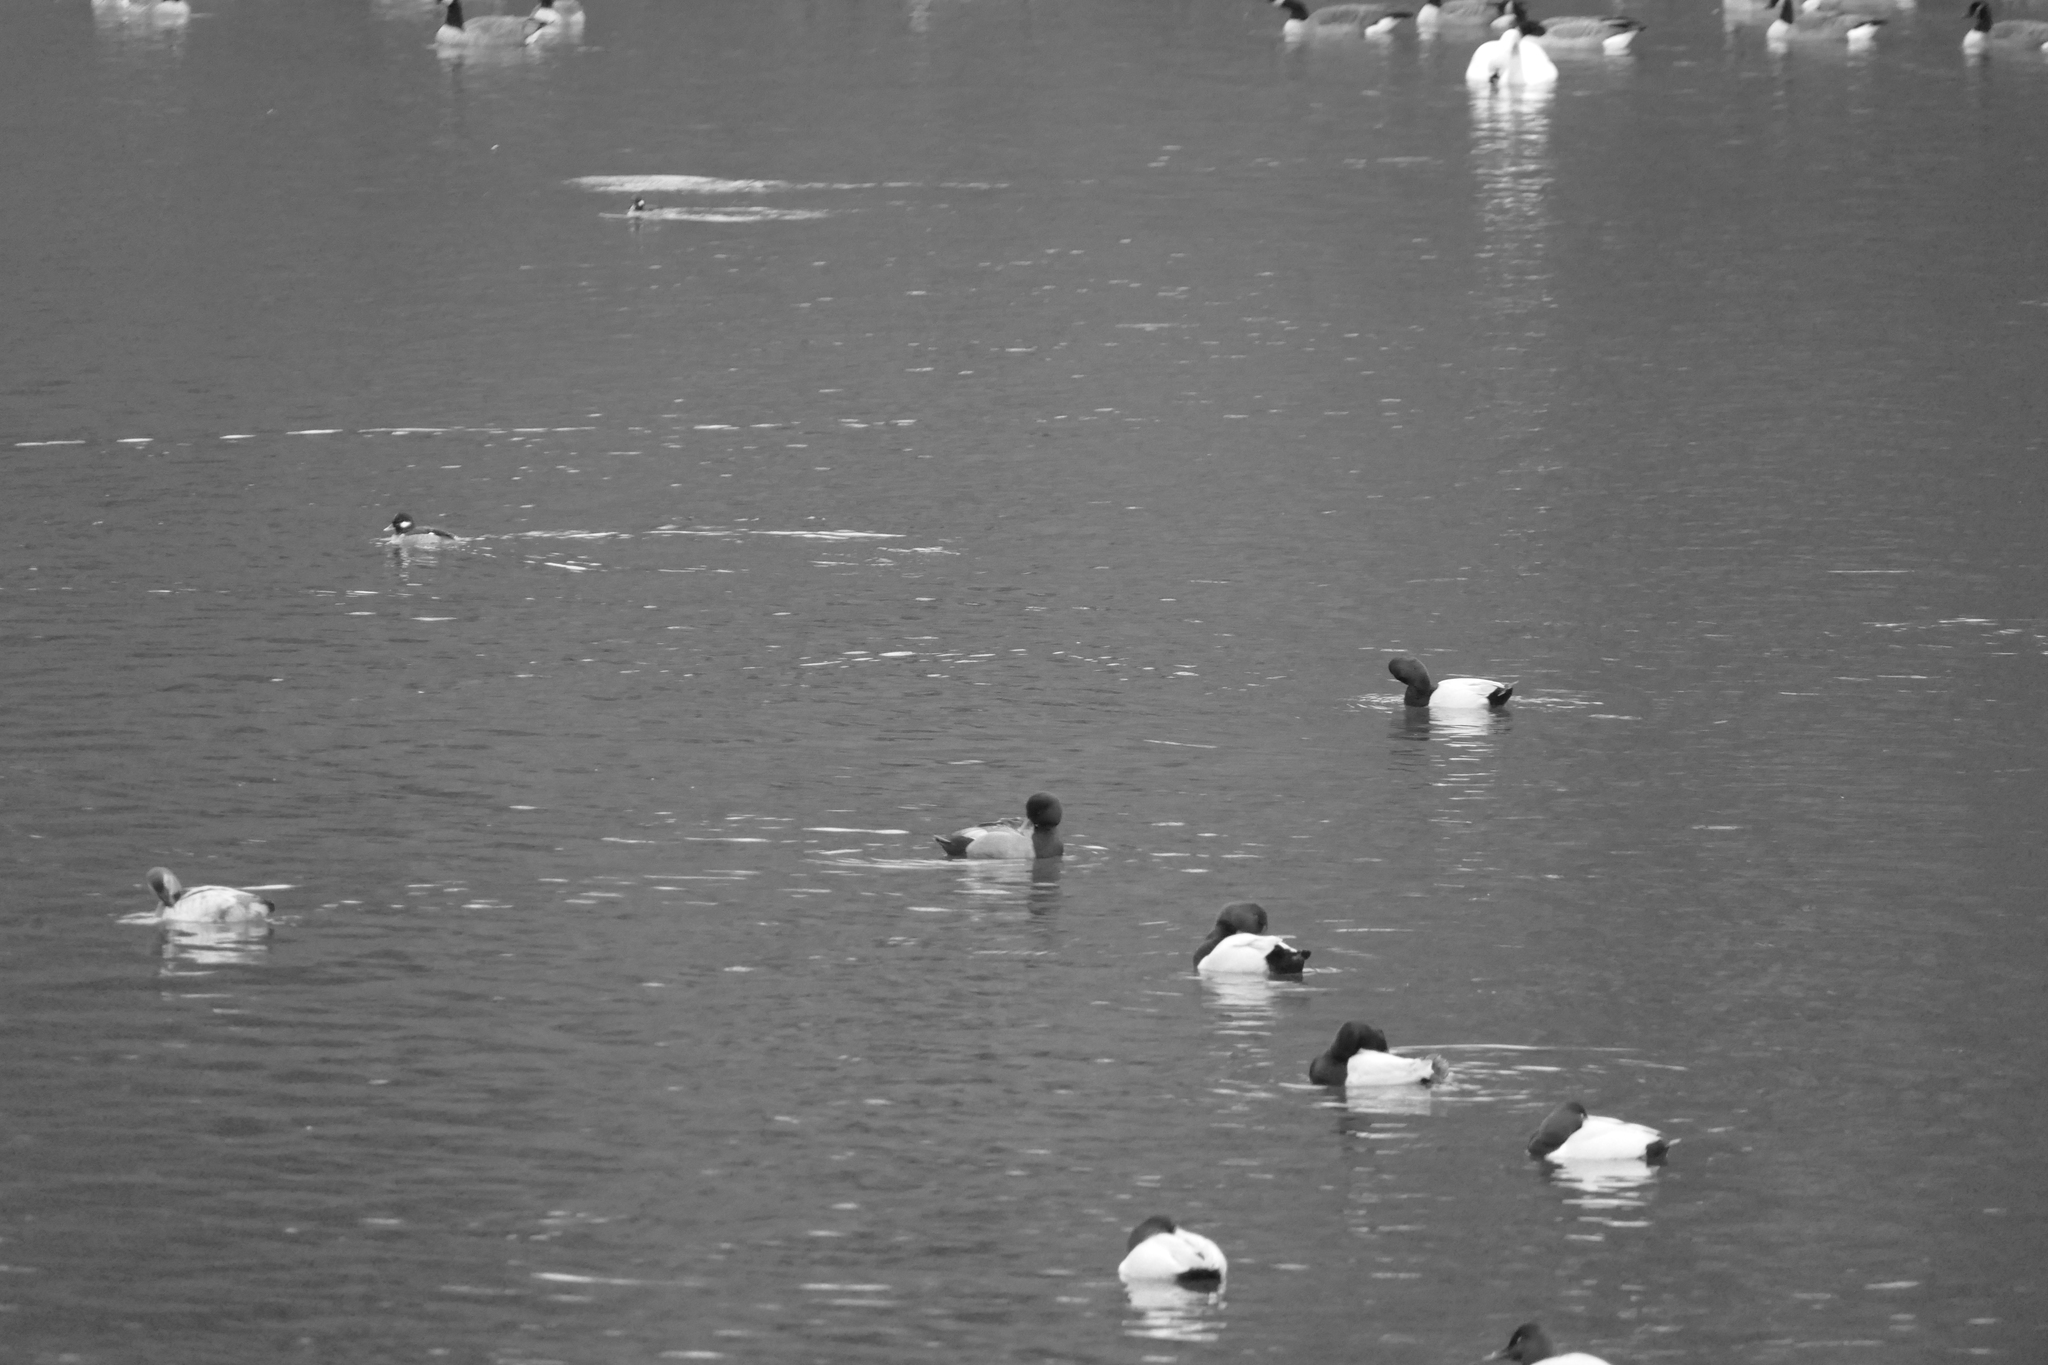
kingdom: Animalia
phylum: Chordata
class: Aves
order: Anseriformes
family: Anatidae
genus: Aythya
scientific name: Aythya affinis
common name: Lesser scaup
